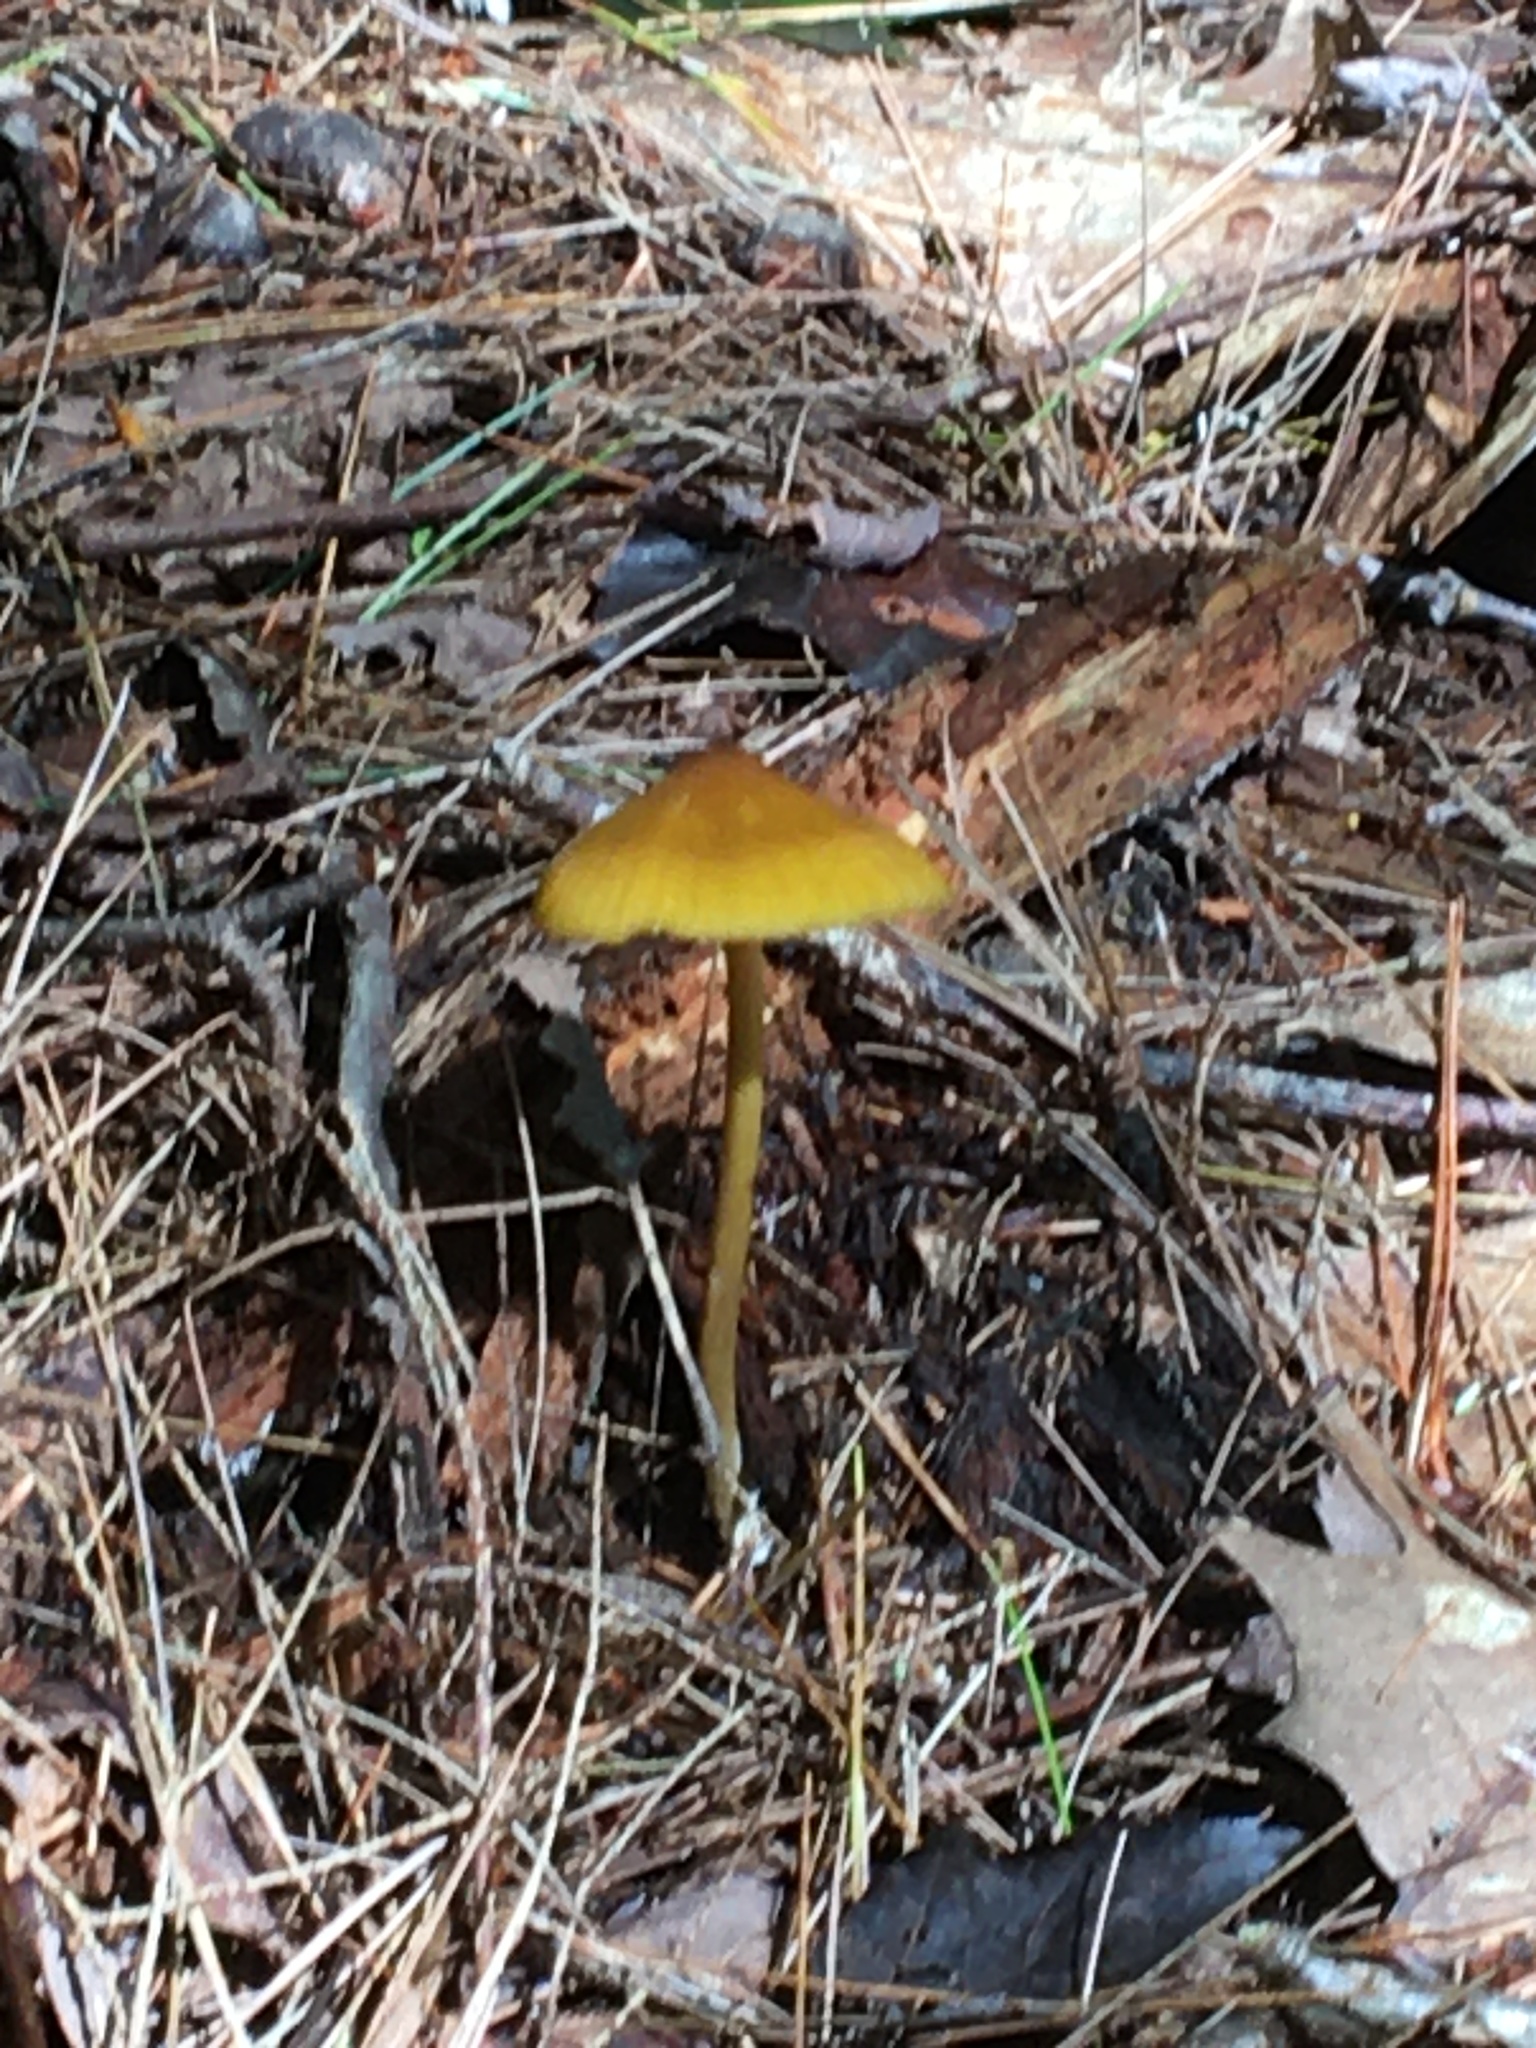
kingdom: Fungi
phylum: Basidiomycota
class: Agaricomycetes
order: Agaricales
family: Entolomataceae
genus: Entoloma
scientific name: Entoloma luteum
